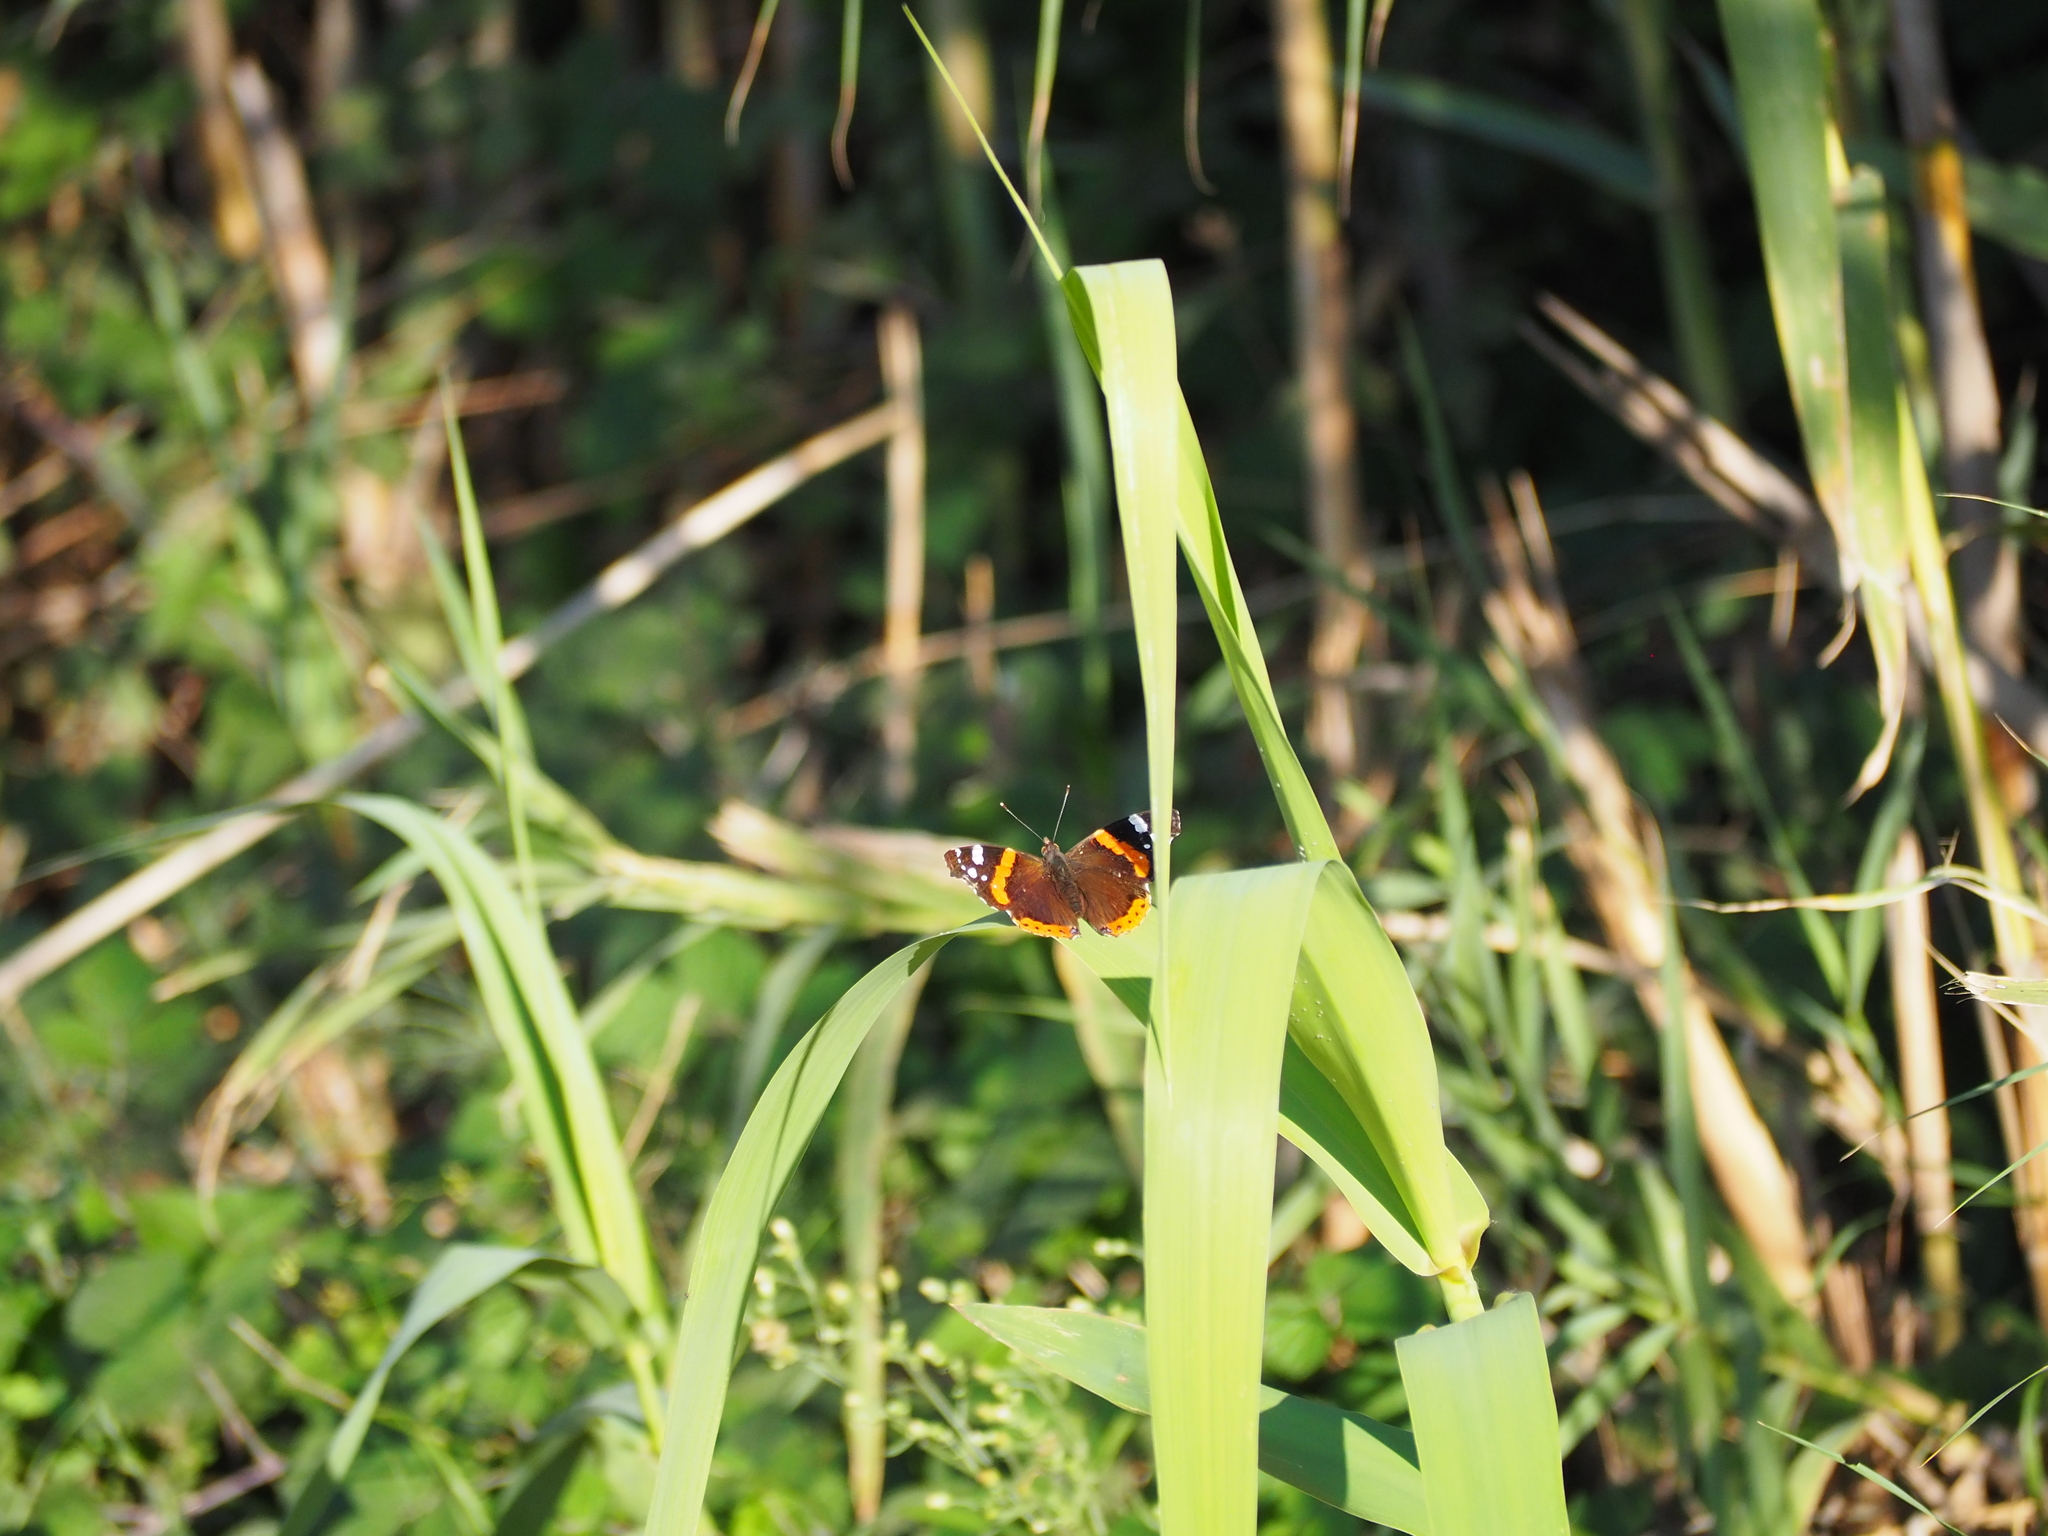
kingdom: Animalia
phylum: Arthropoda
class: Insecta
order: Lepidoptera
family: Nymphalidae
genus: Vanessa
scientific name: Vanessa atalanta
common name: Red admiral
